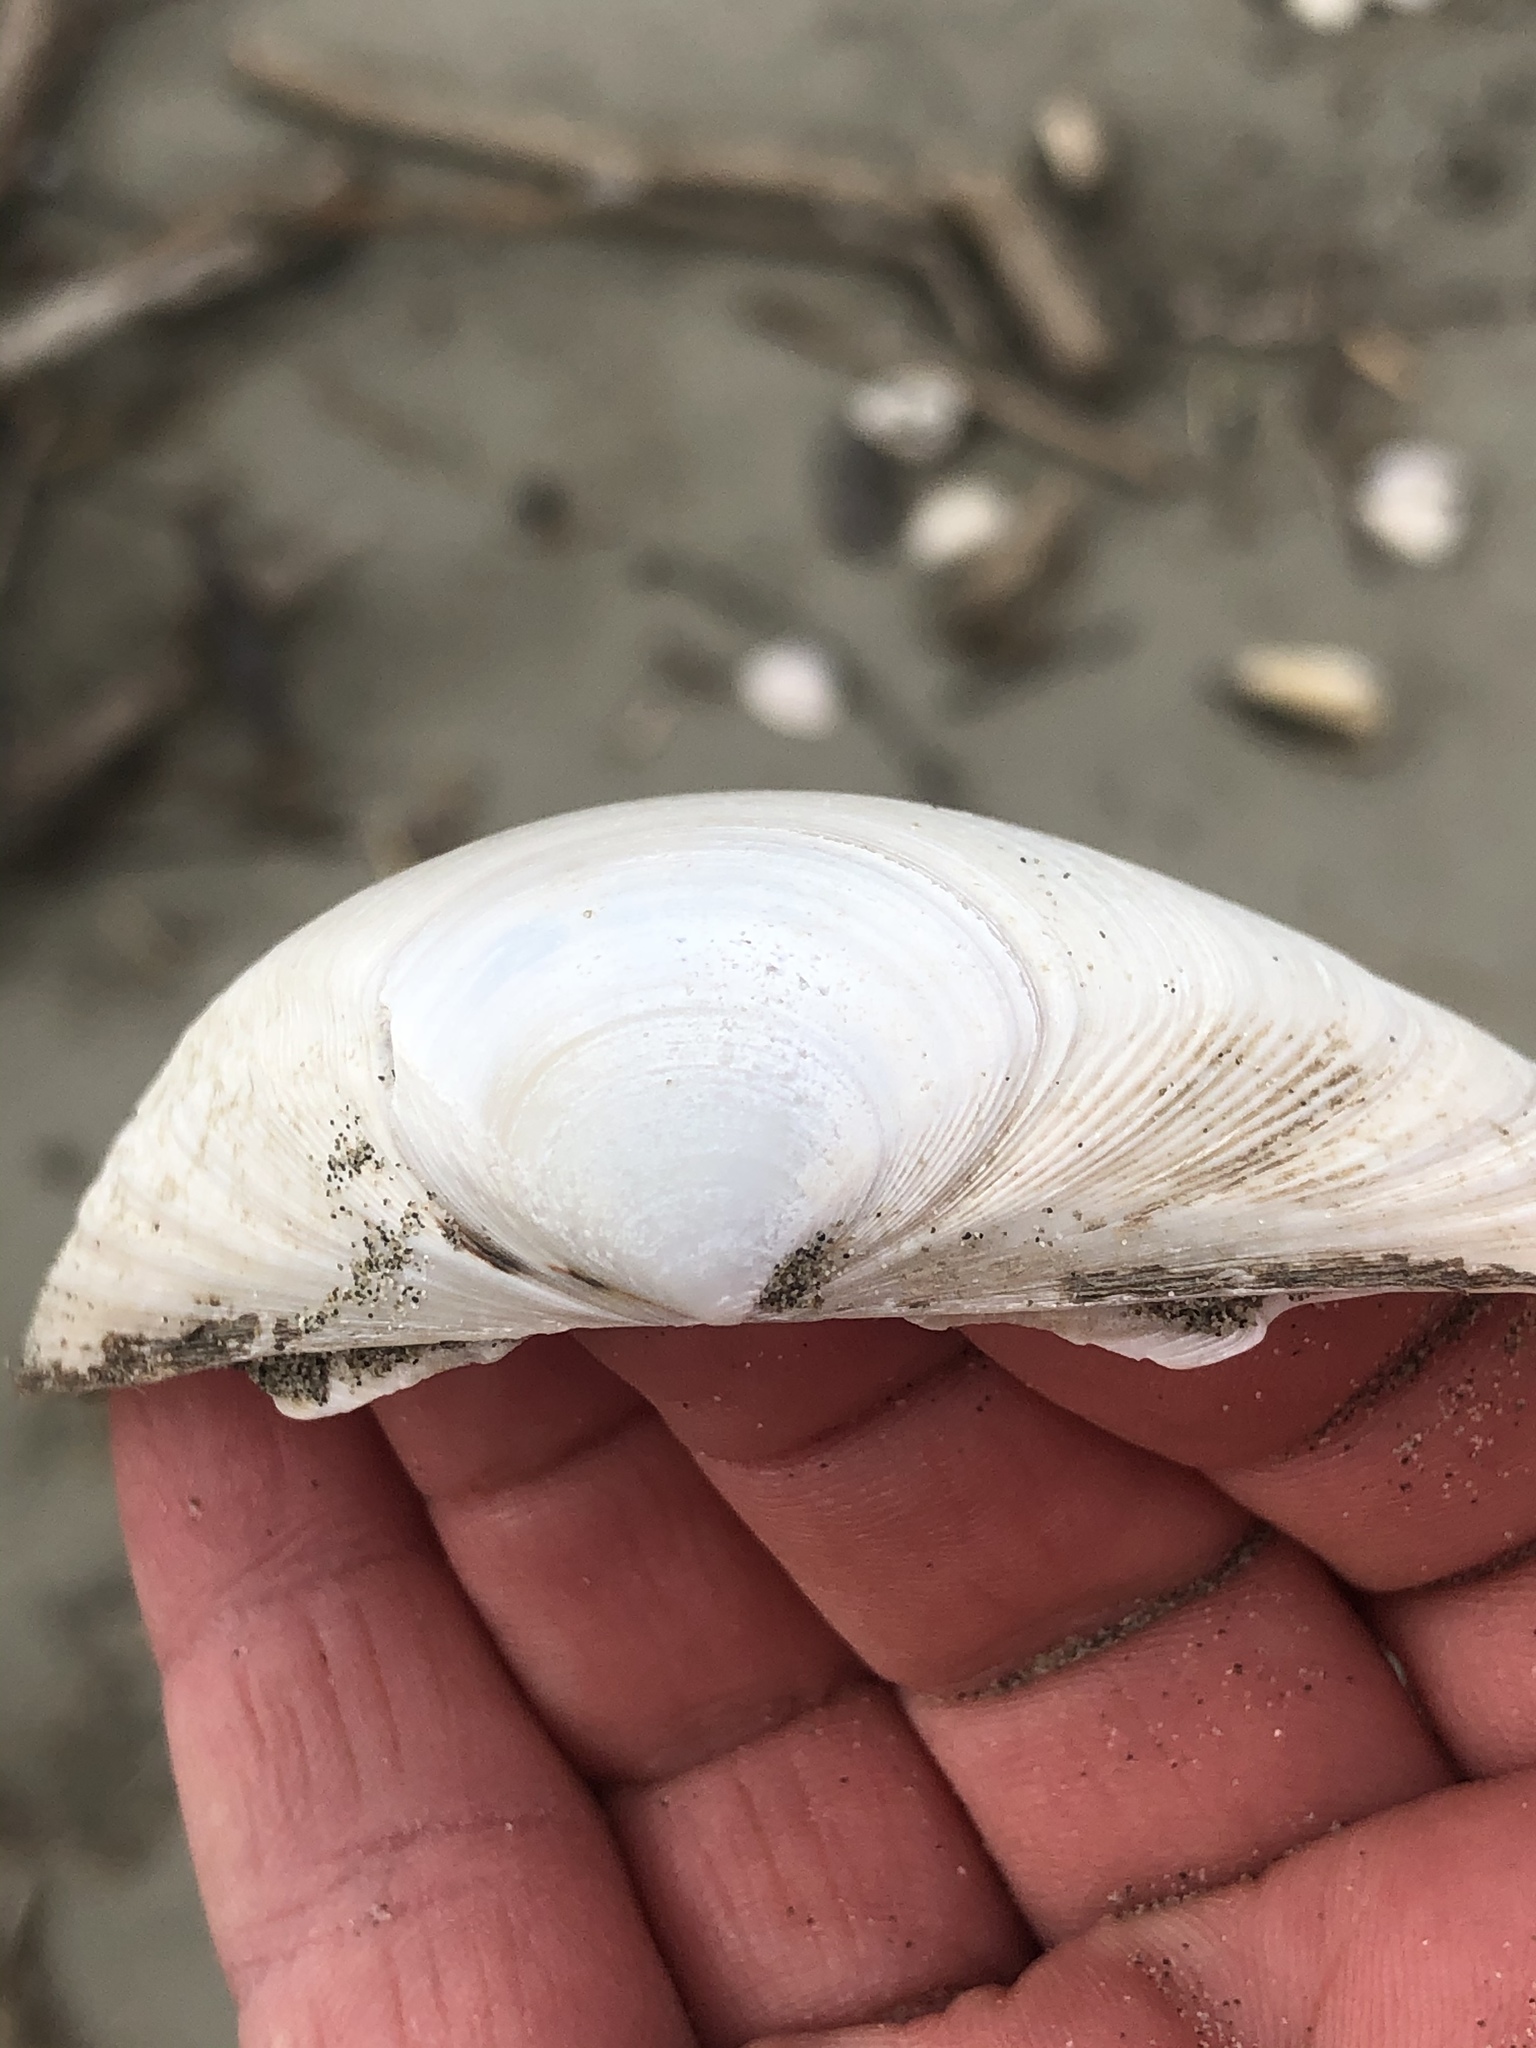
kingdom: Animalia
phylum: Mollusca
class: Bivalvia
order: Venerida
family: Mactridae
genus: Spisula
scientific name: Spisula murchisoni
